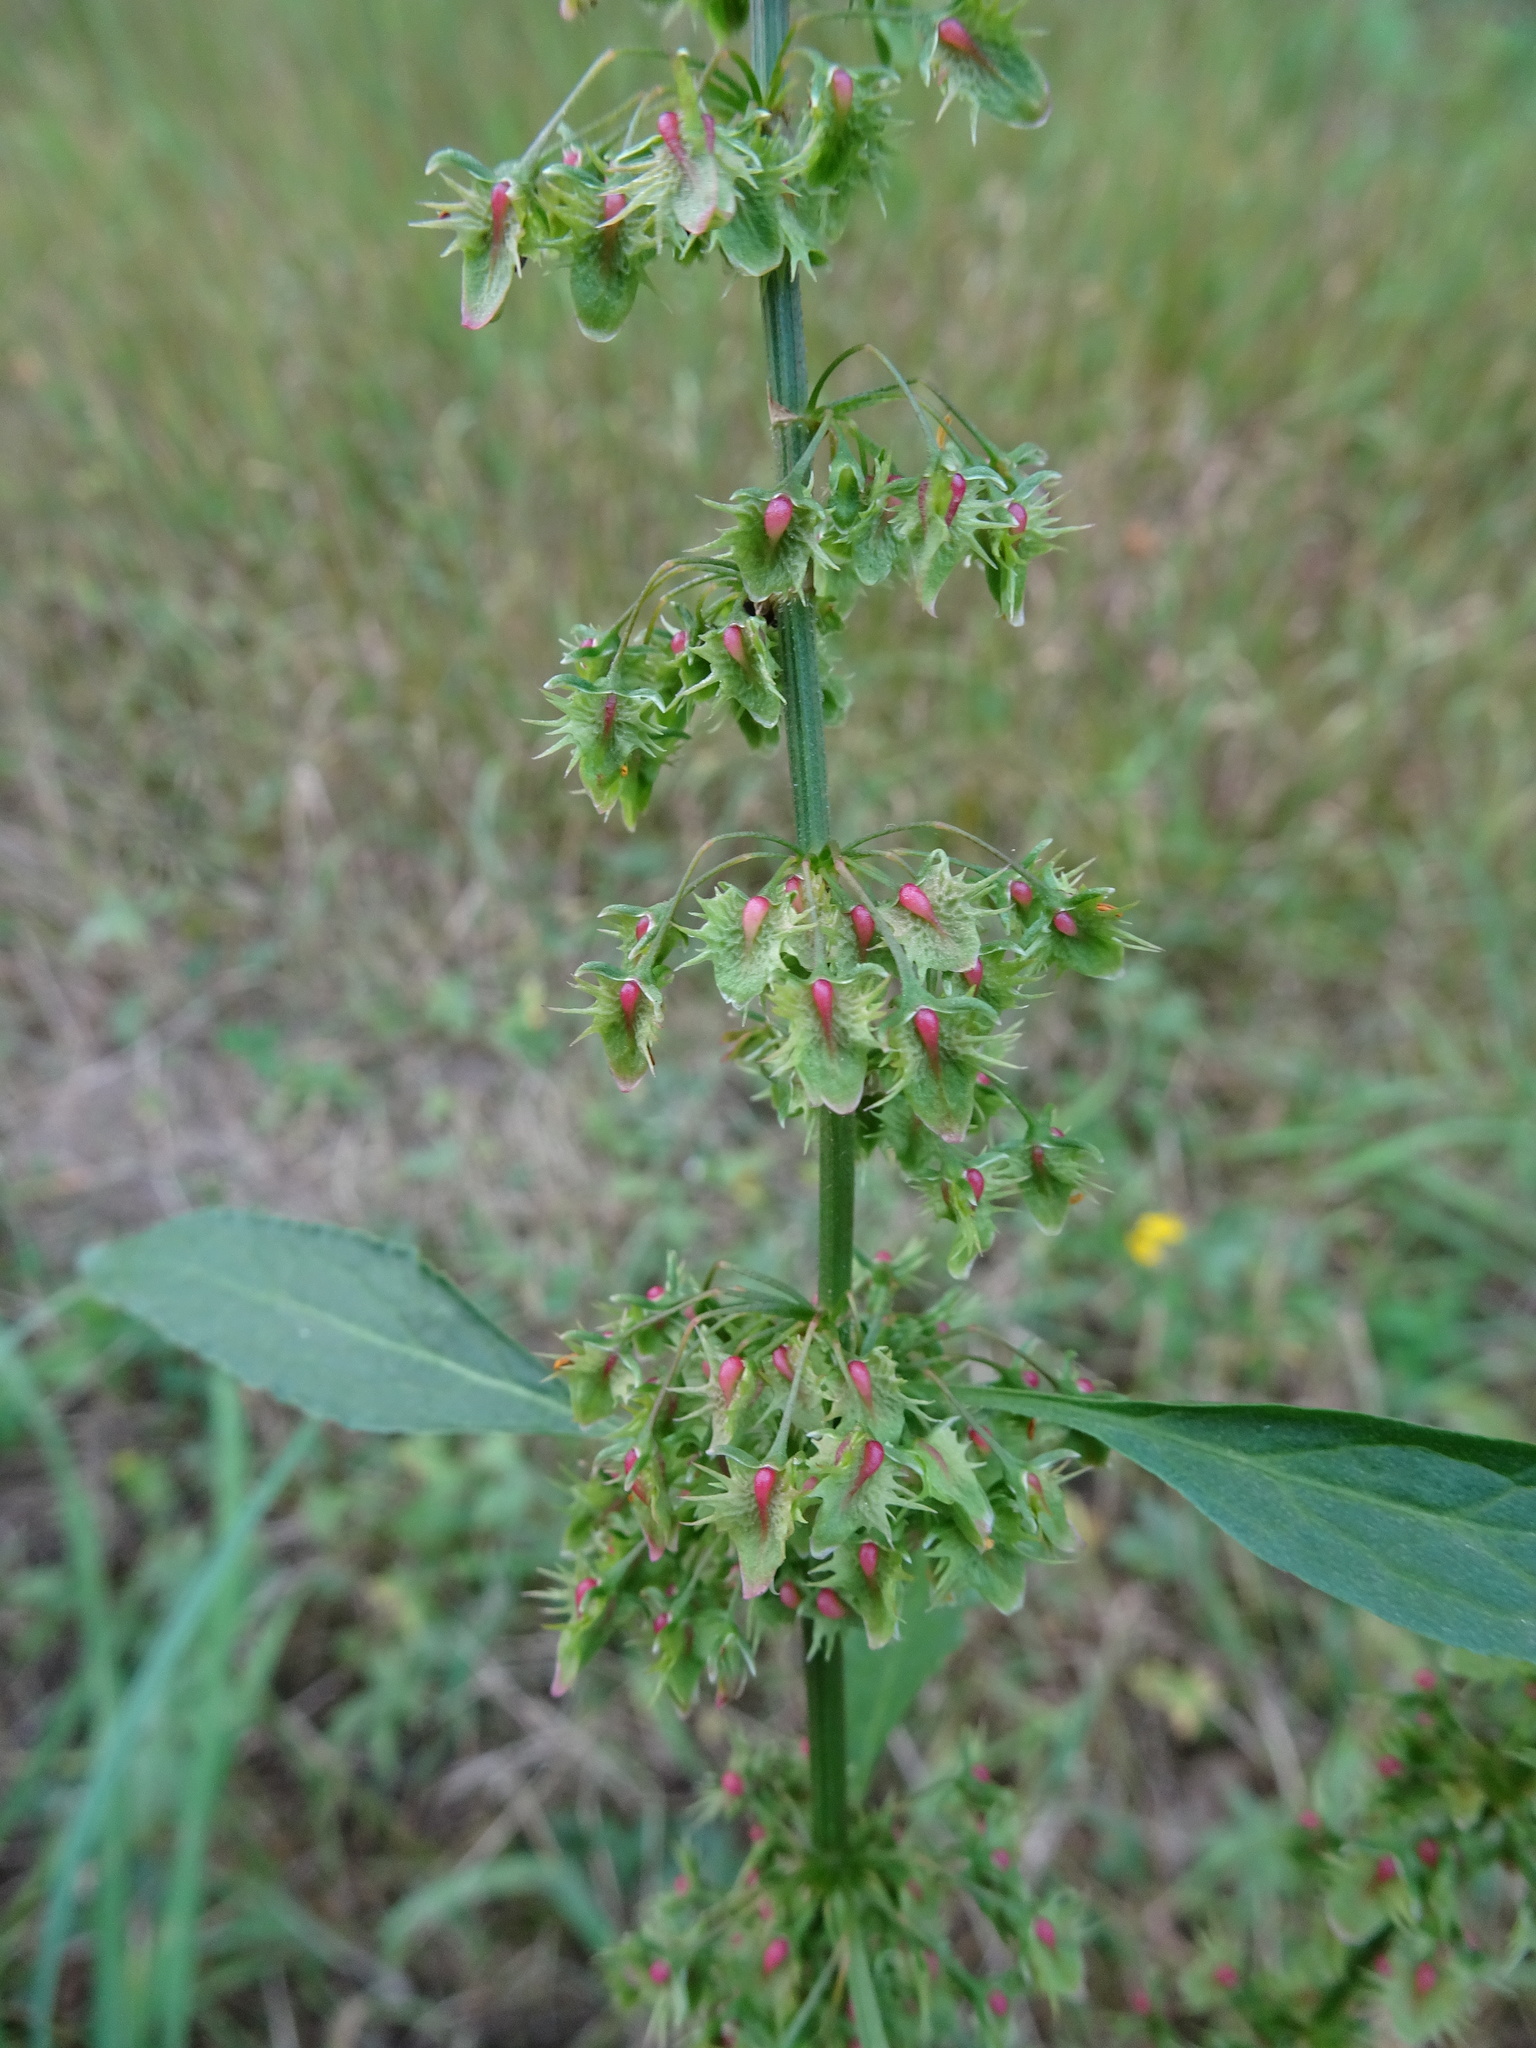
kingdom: Plantae
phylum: Tracheophyta
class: Magnoliopsida
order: Caryophyllales
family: Polygonaceae
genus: Rumex
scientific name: Rumex obtusifolius
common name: Bitter dock
